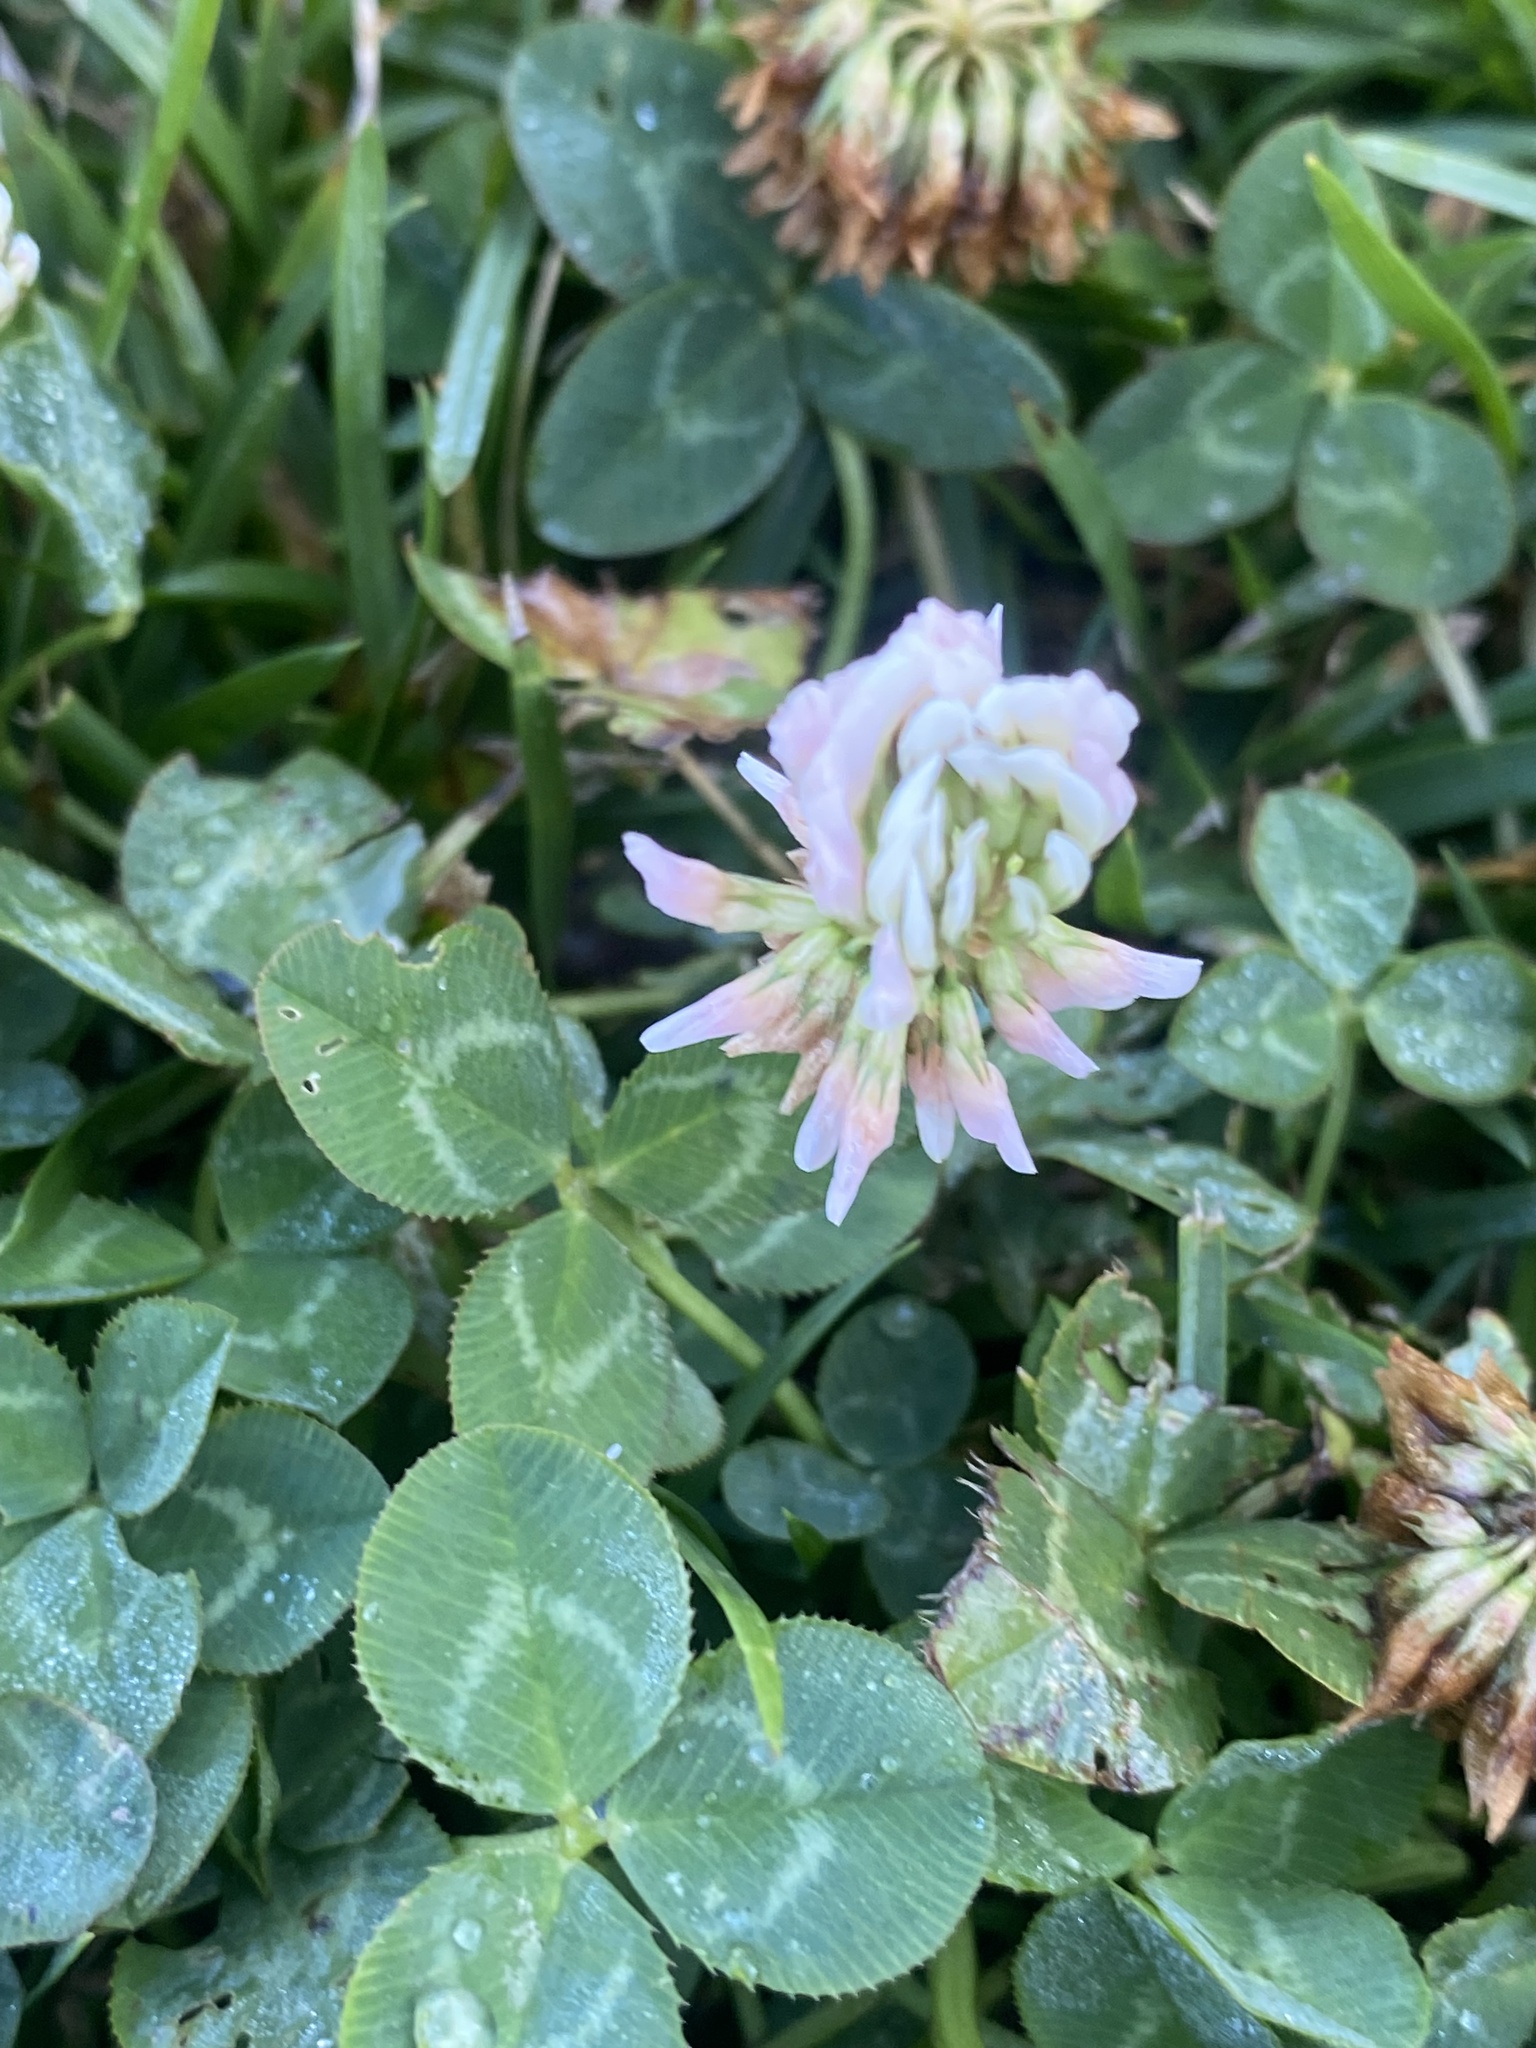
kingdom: Plantae
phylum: Tracheophyta
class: Magnoliopsida
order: Fabales
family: Fabaceae
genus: Trifolium
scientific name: Trifolium repens
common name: White clover
